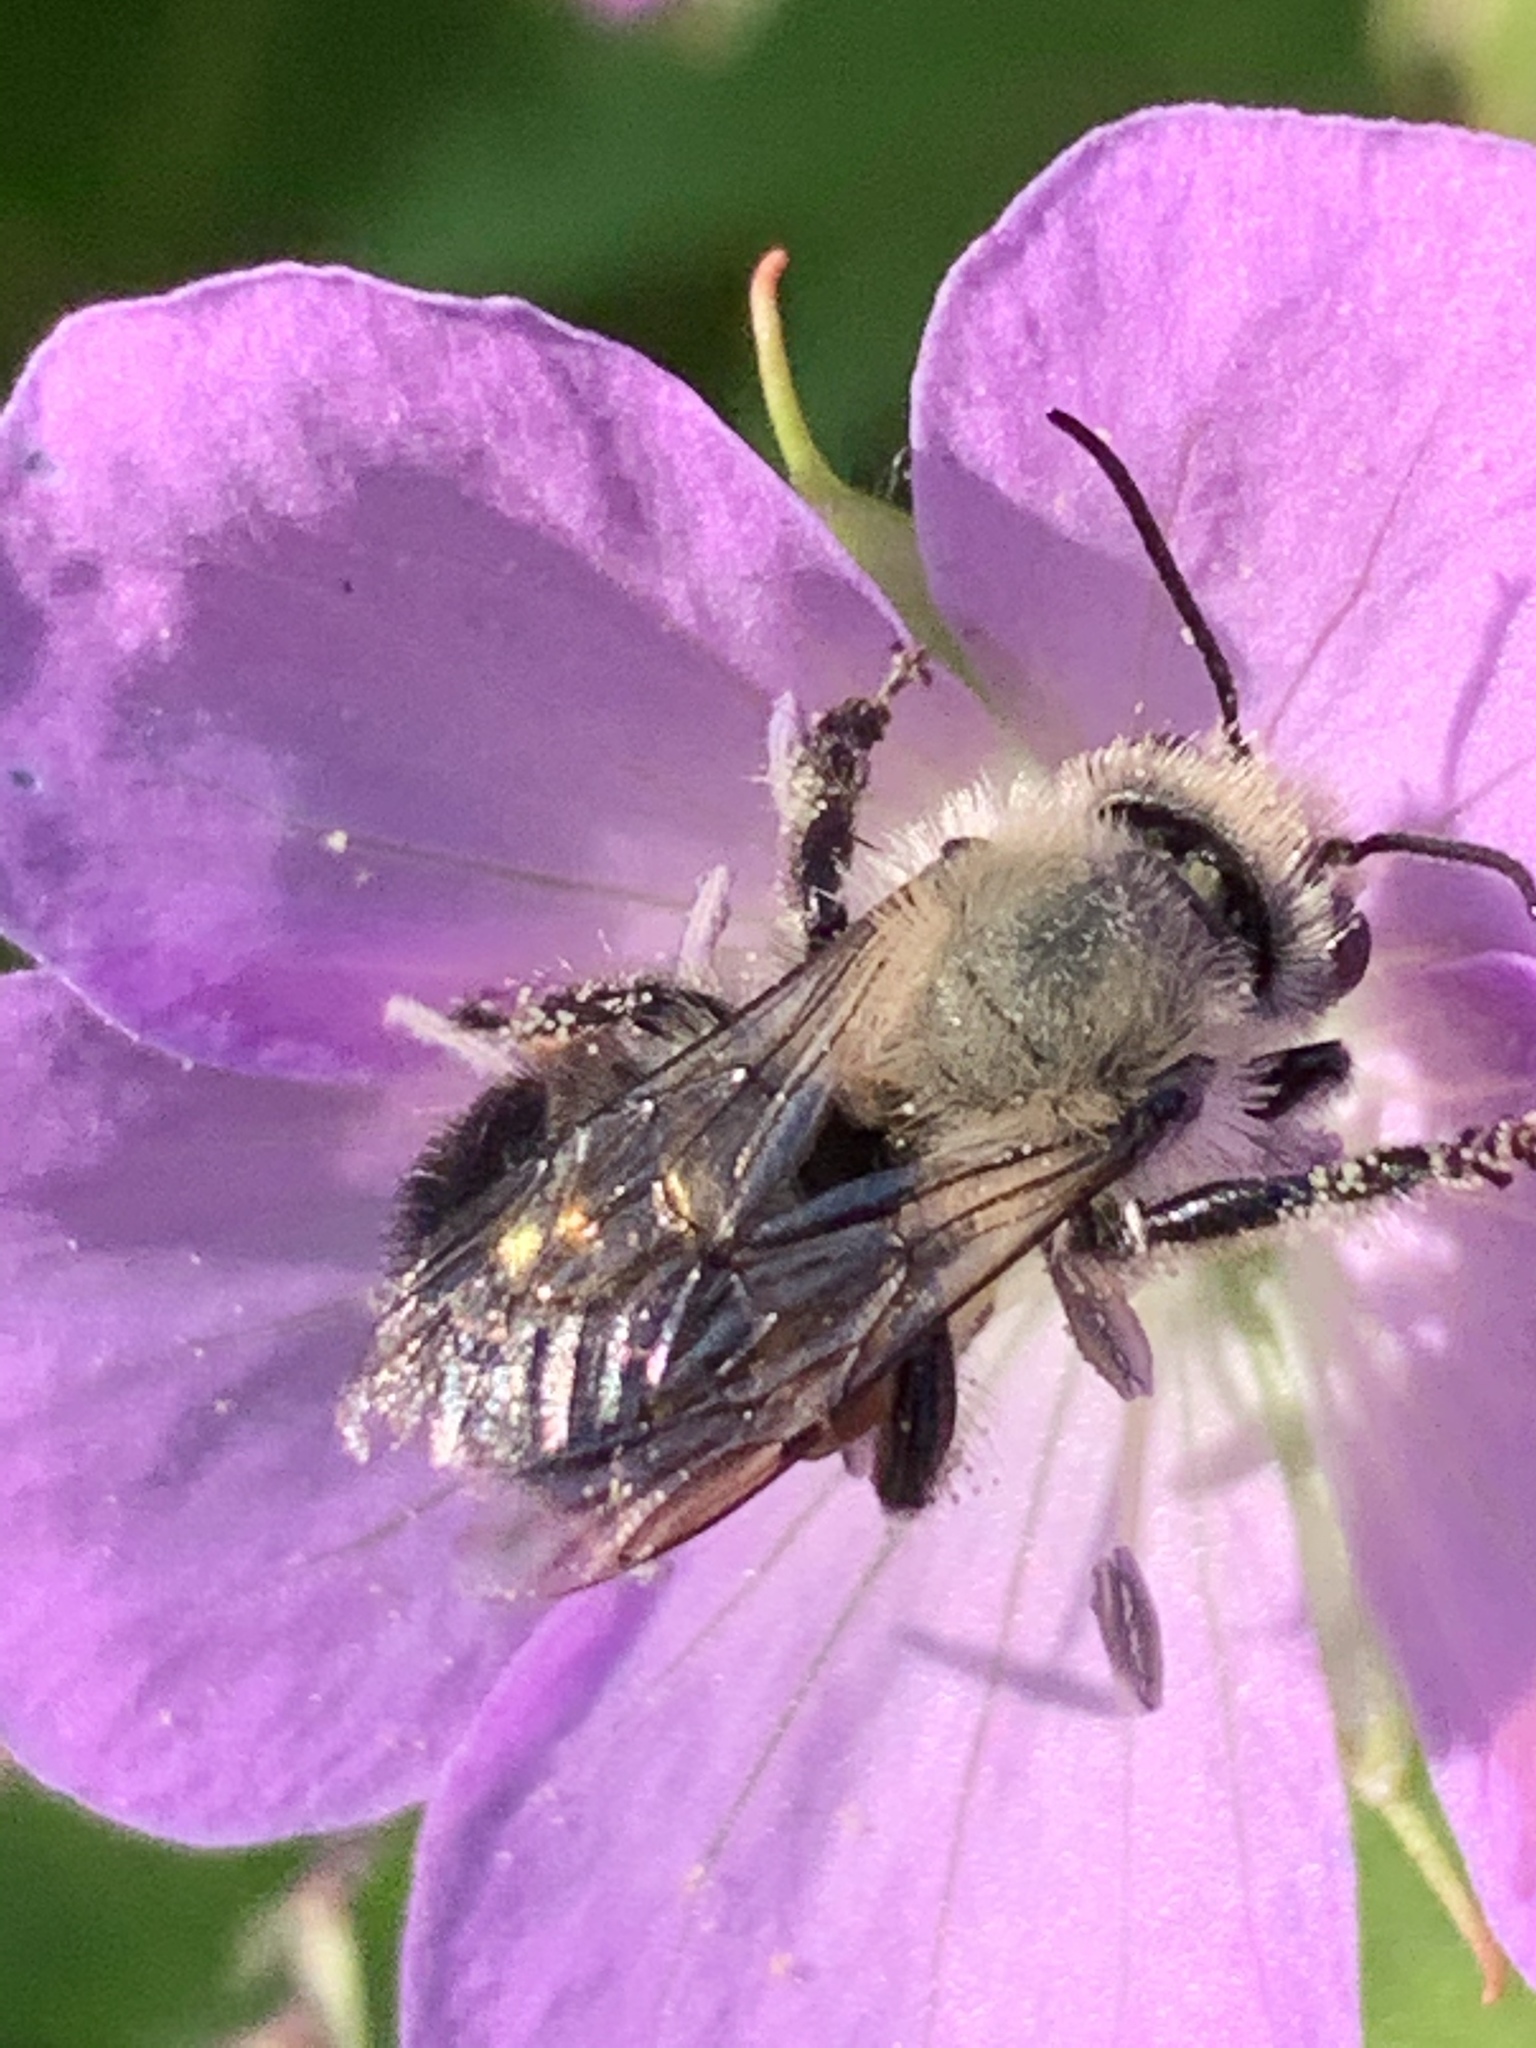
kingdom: Animalia
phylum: Arthropoda
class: Insecta
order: Hymenoptera
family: Megachilidae
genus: Osmia
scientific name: Osmia bucephala
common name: Bufflehead mason bee
